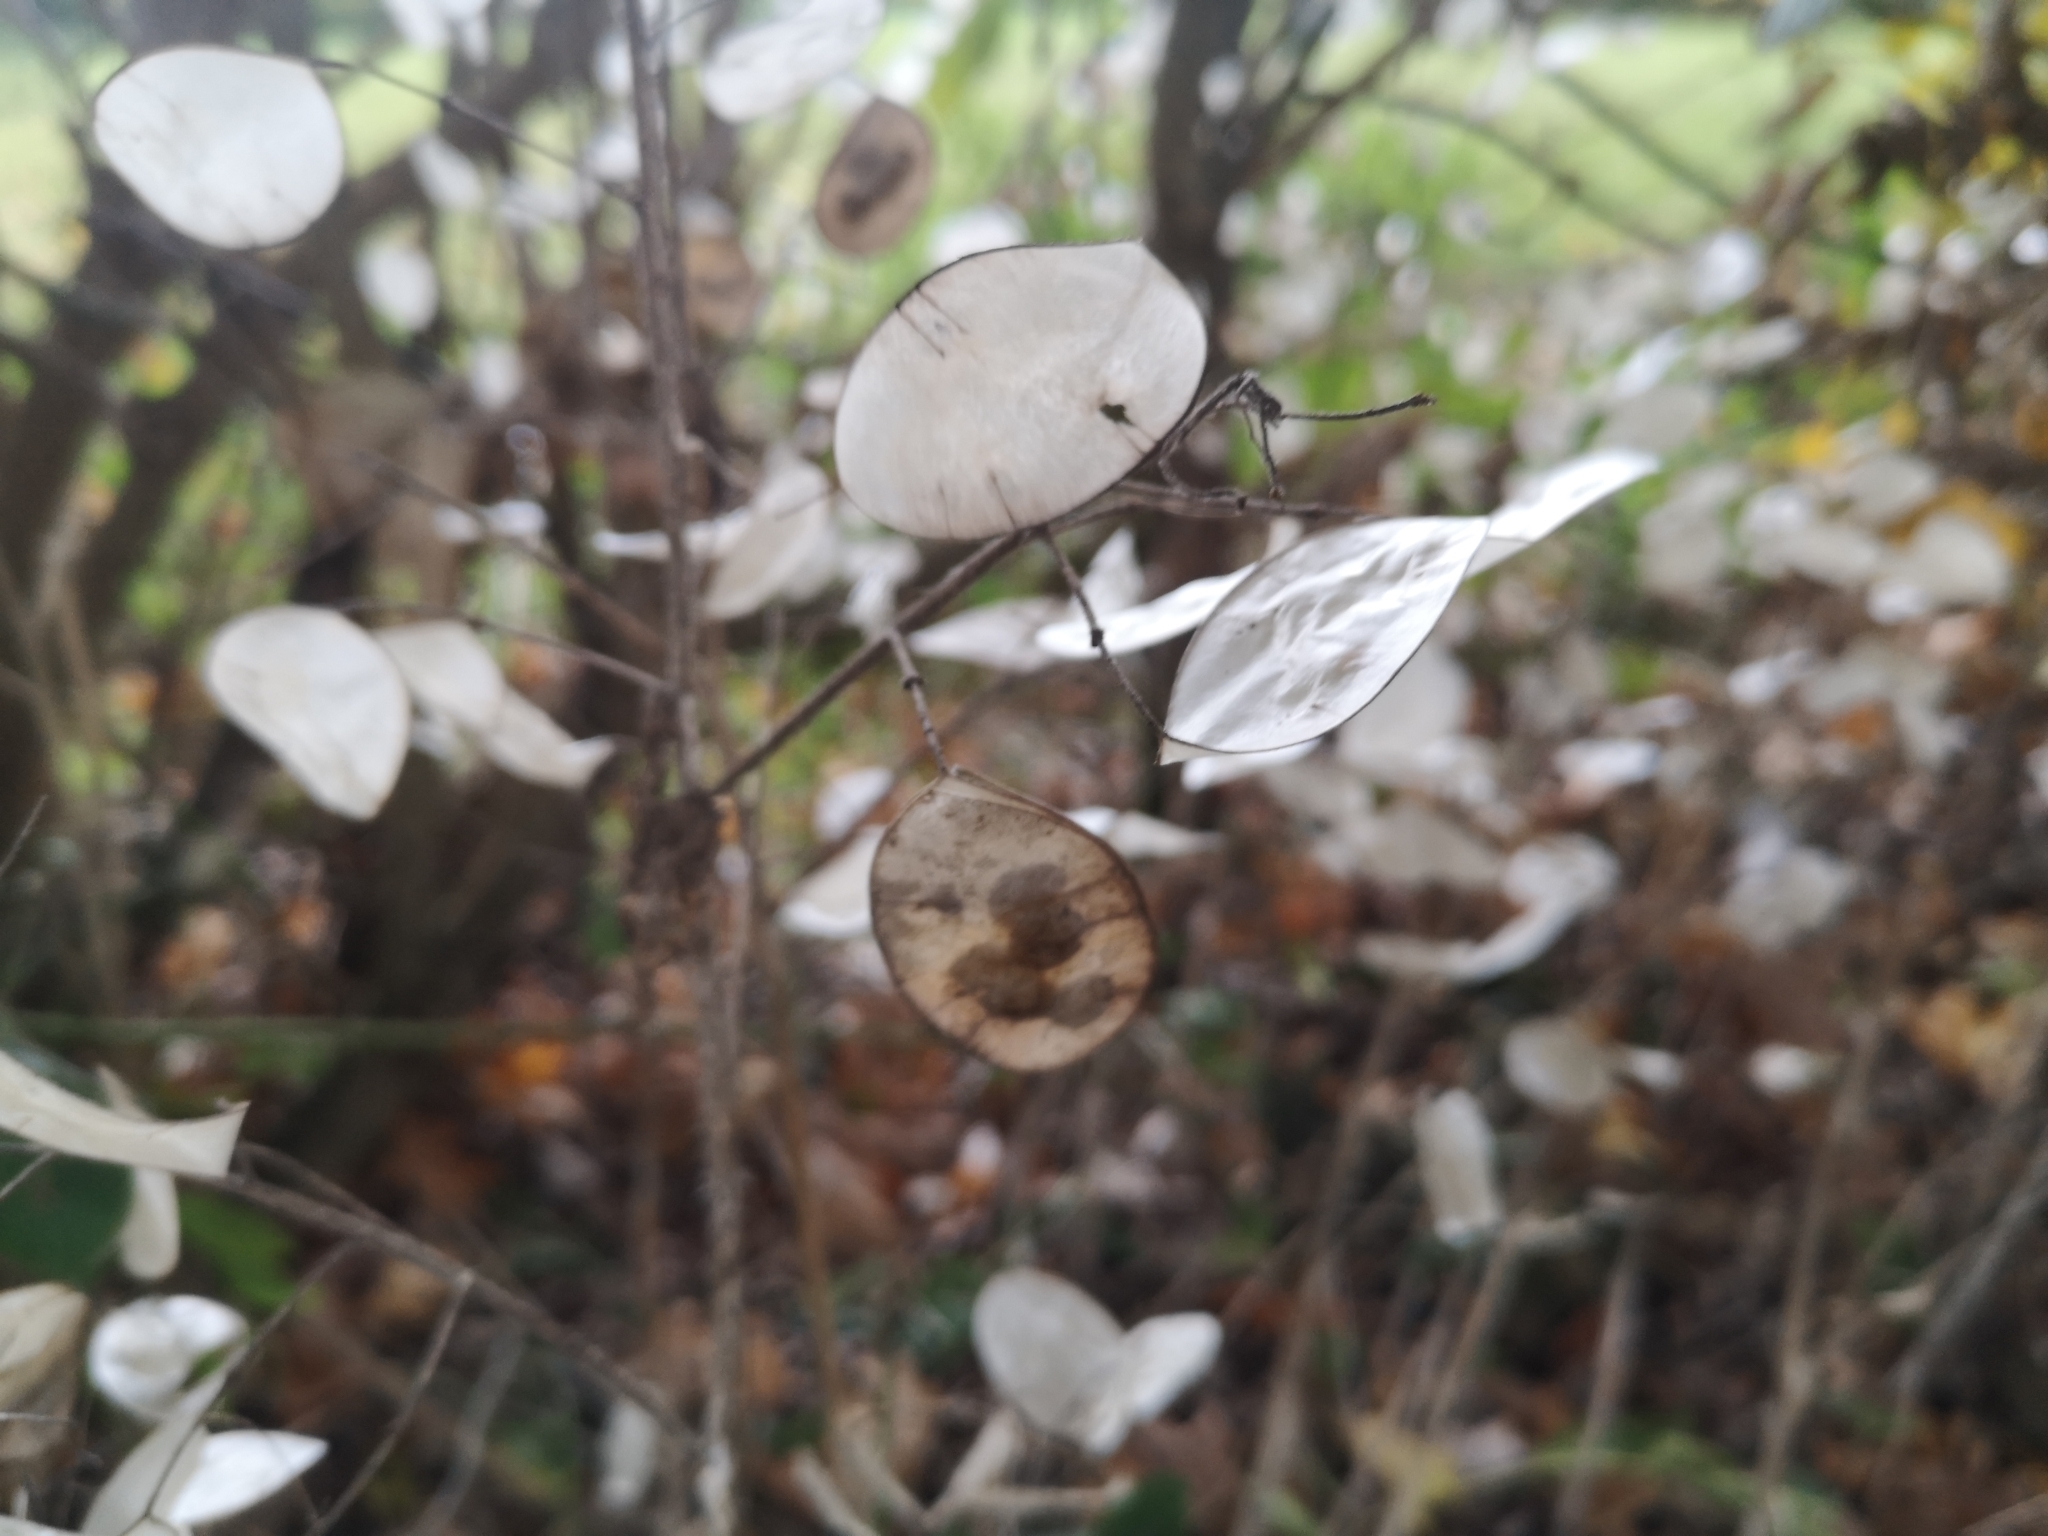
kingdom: Plantae
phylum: Tracheophyta
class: Magnoliopsida
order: Brassicales
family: Brassicaceae
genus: Lunaria
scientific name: Lunaria annua
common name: Honesty
